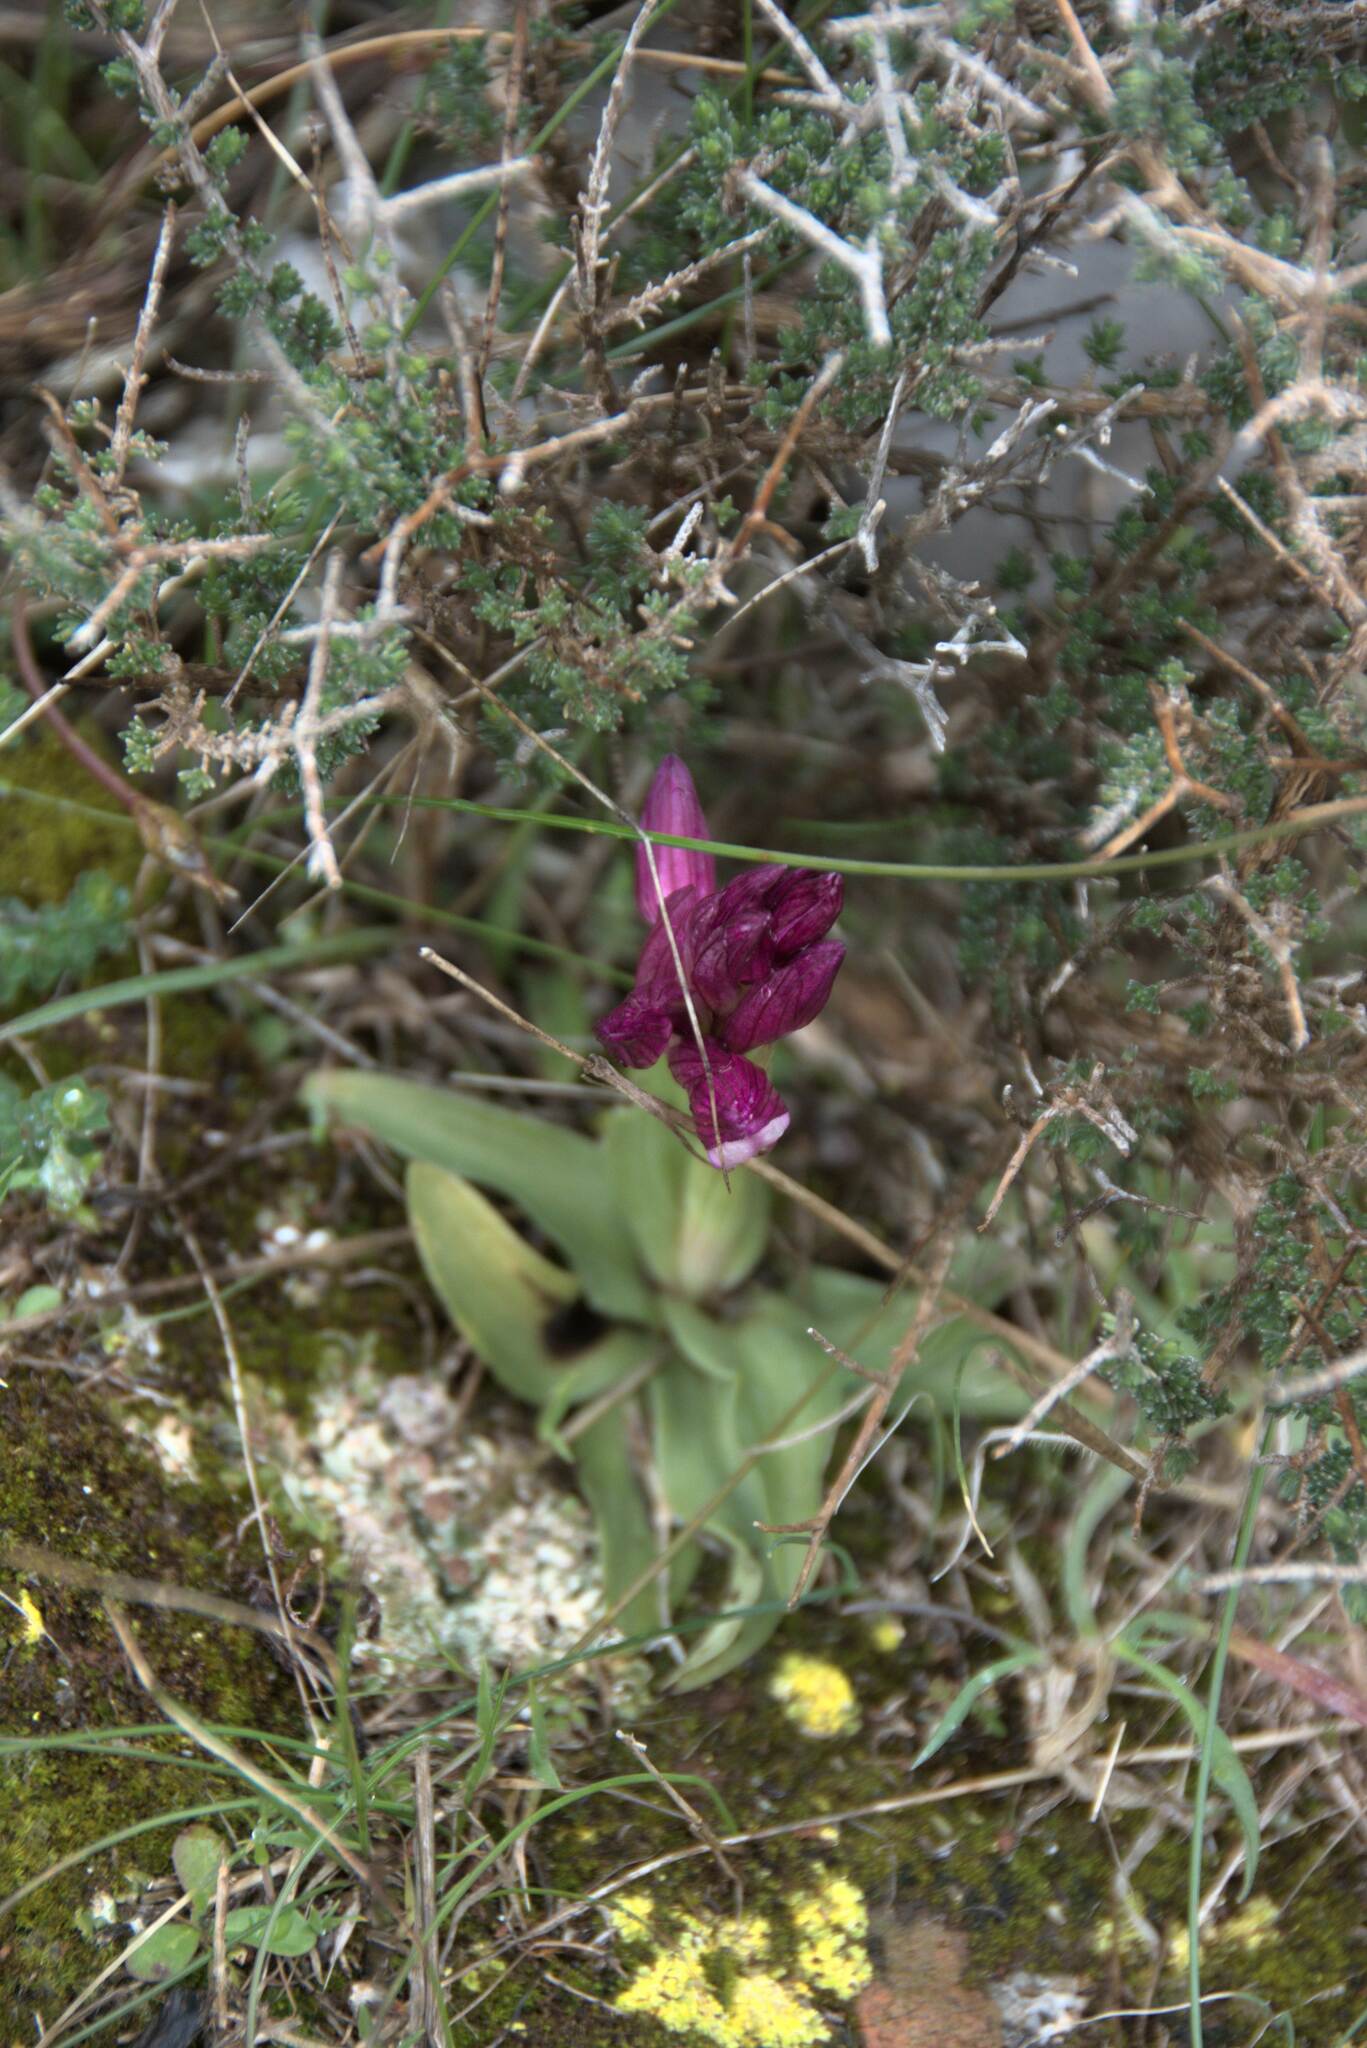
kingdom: Plantae
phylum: Tracheophyta
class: Liliopsida
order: Asparagales
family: Orchidaceae
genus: Anacamptis
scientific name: Anacamptis papilionacea
